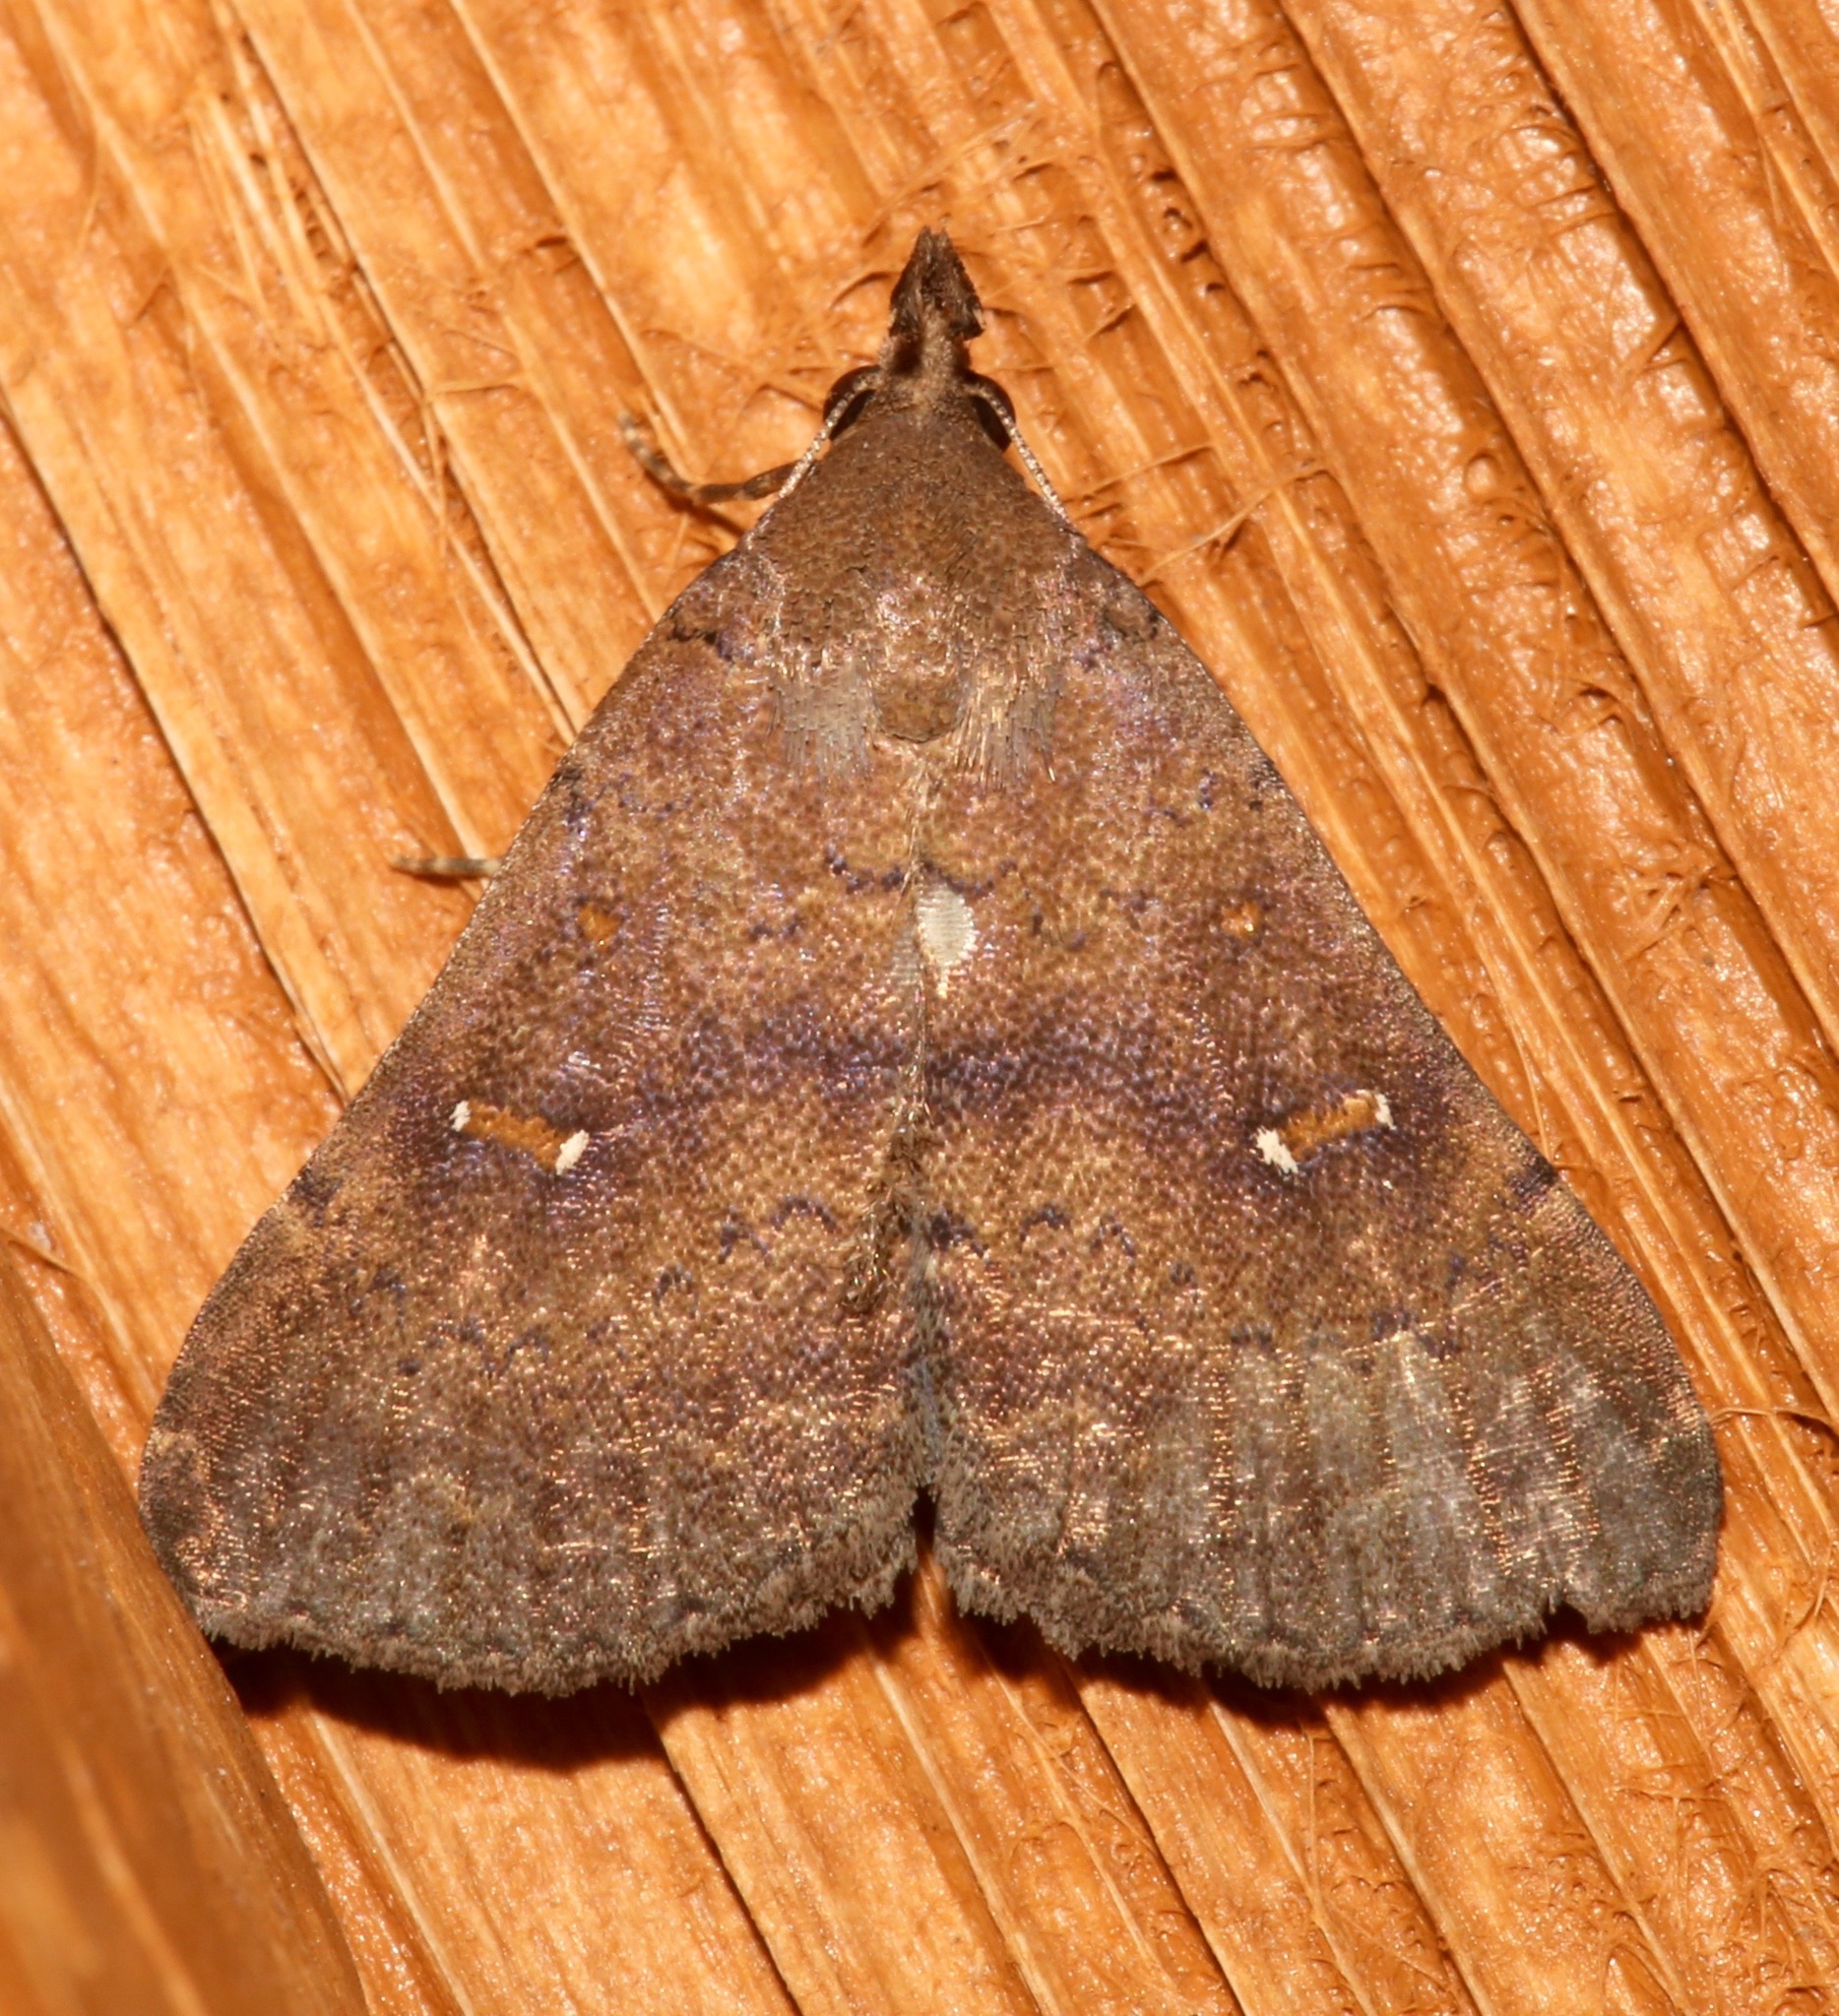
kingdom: Animalia
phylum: Arthropoda
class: Insecta
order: Lepidoptera
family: Erebidae
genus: Hypenula
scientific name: Hypenula cacuminalis
